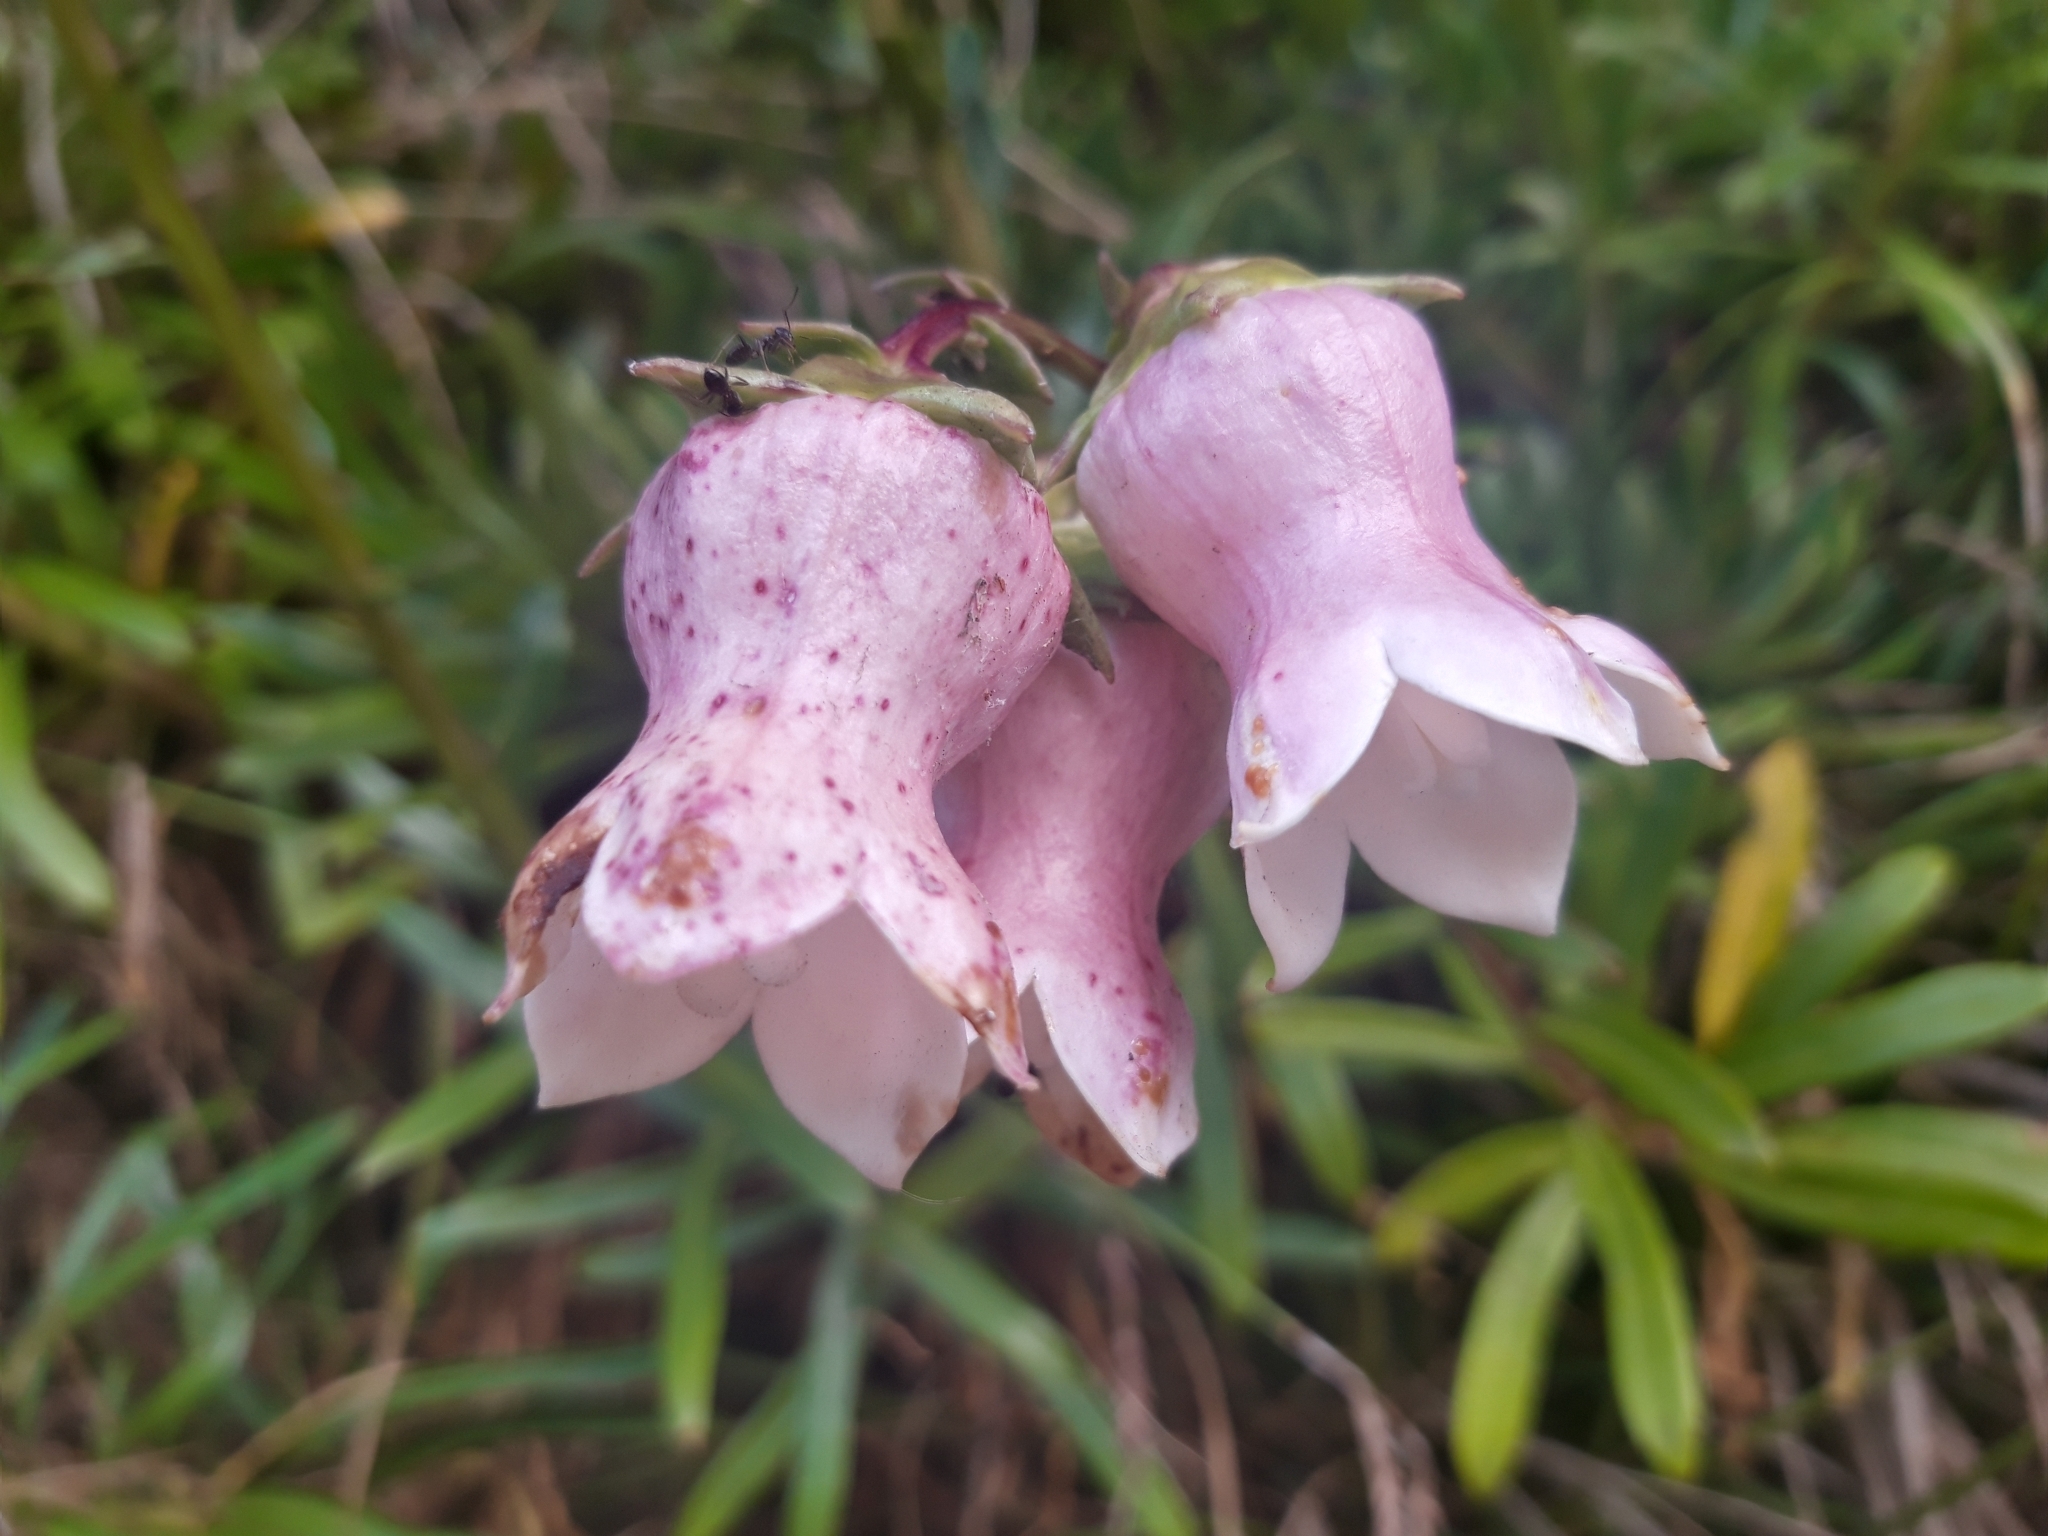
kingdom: Plantae
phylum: Tracheophyta
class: Magnoliopsida
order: Asterales
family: Campanulaceae
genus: Campanula
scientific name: Campanula vidalii
